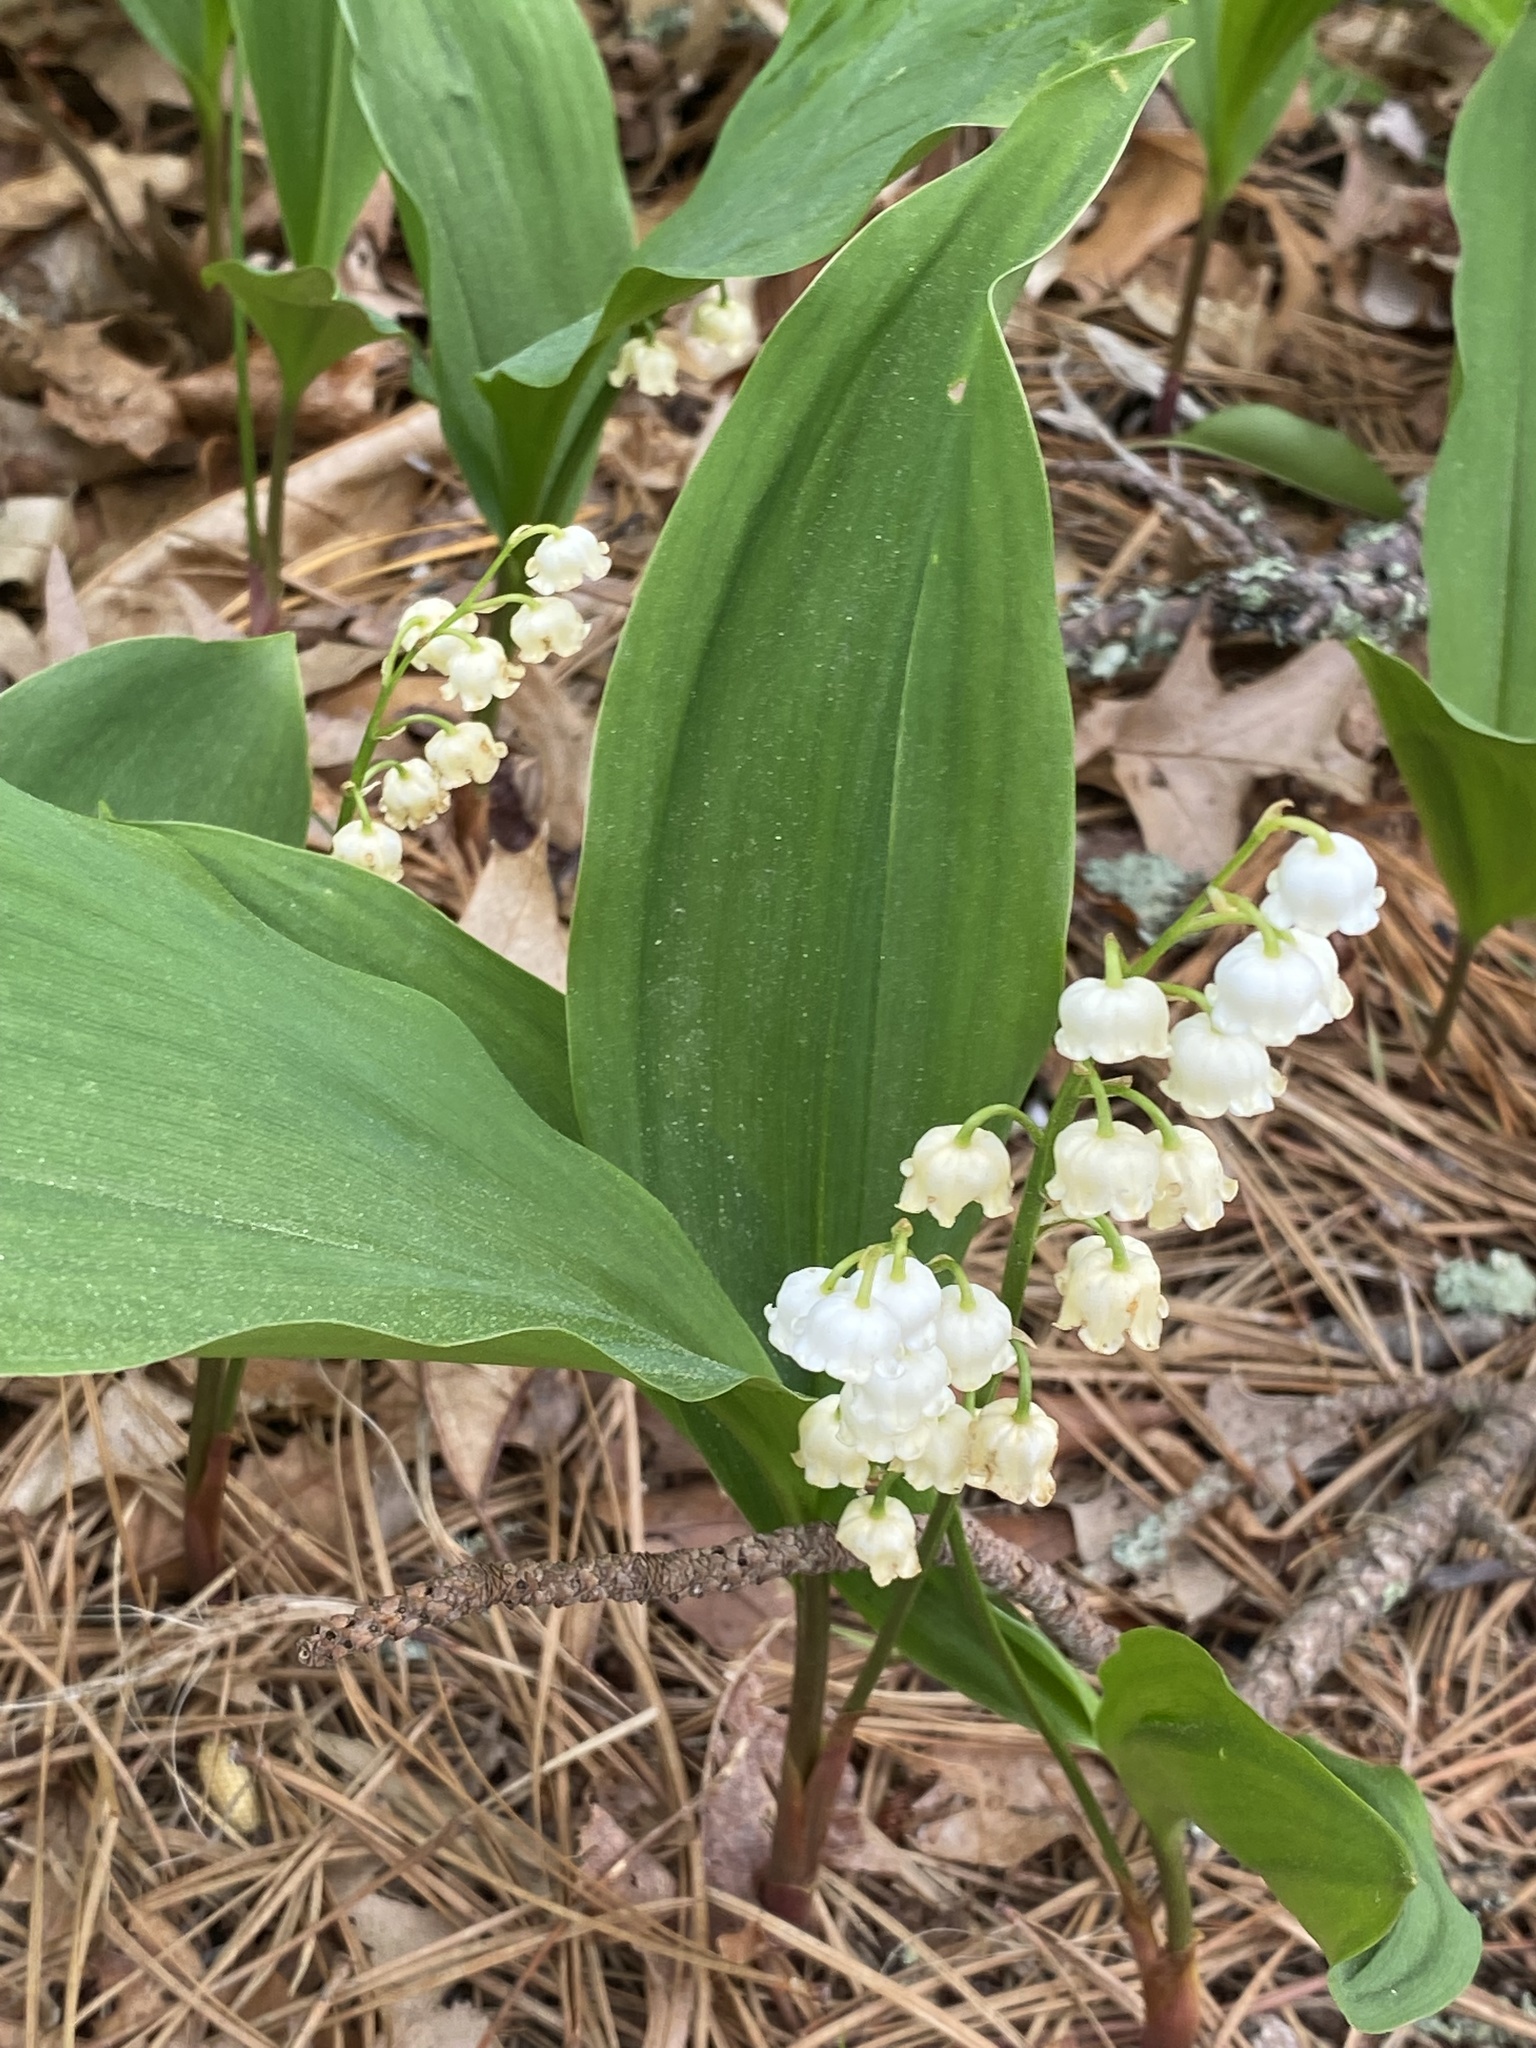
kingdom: Plantae
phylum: Tracheophyta
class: Liliopsida
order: Asparagales
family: Asparagaceae
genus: Convallaria
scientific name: Convallaria majalis
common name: Lily-of-the-valley
